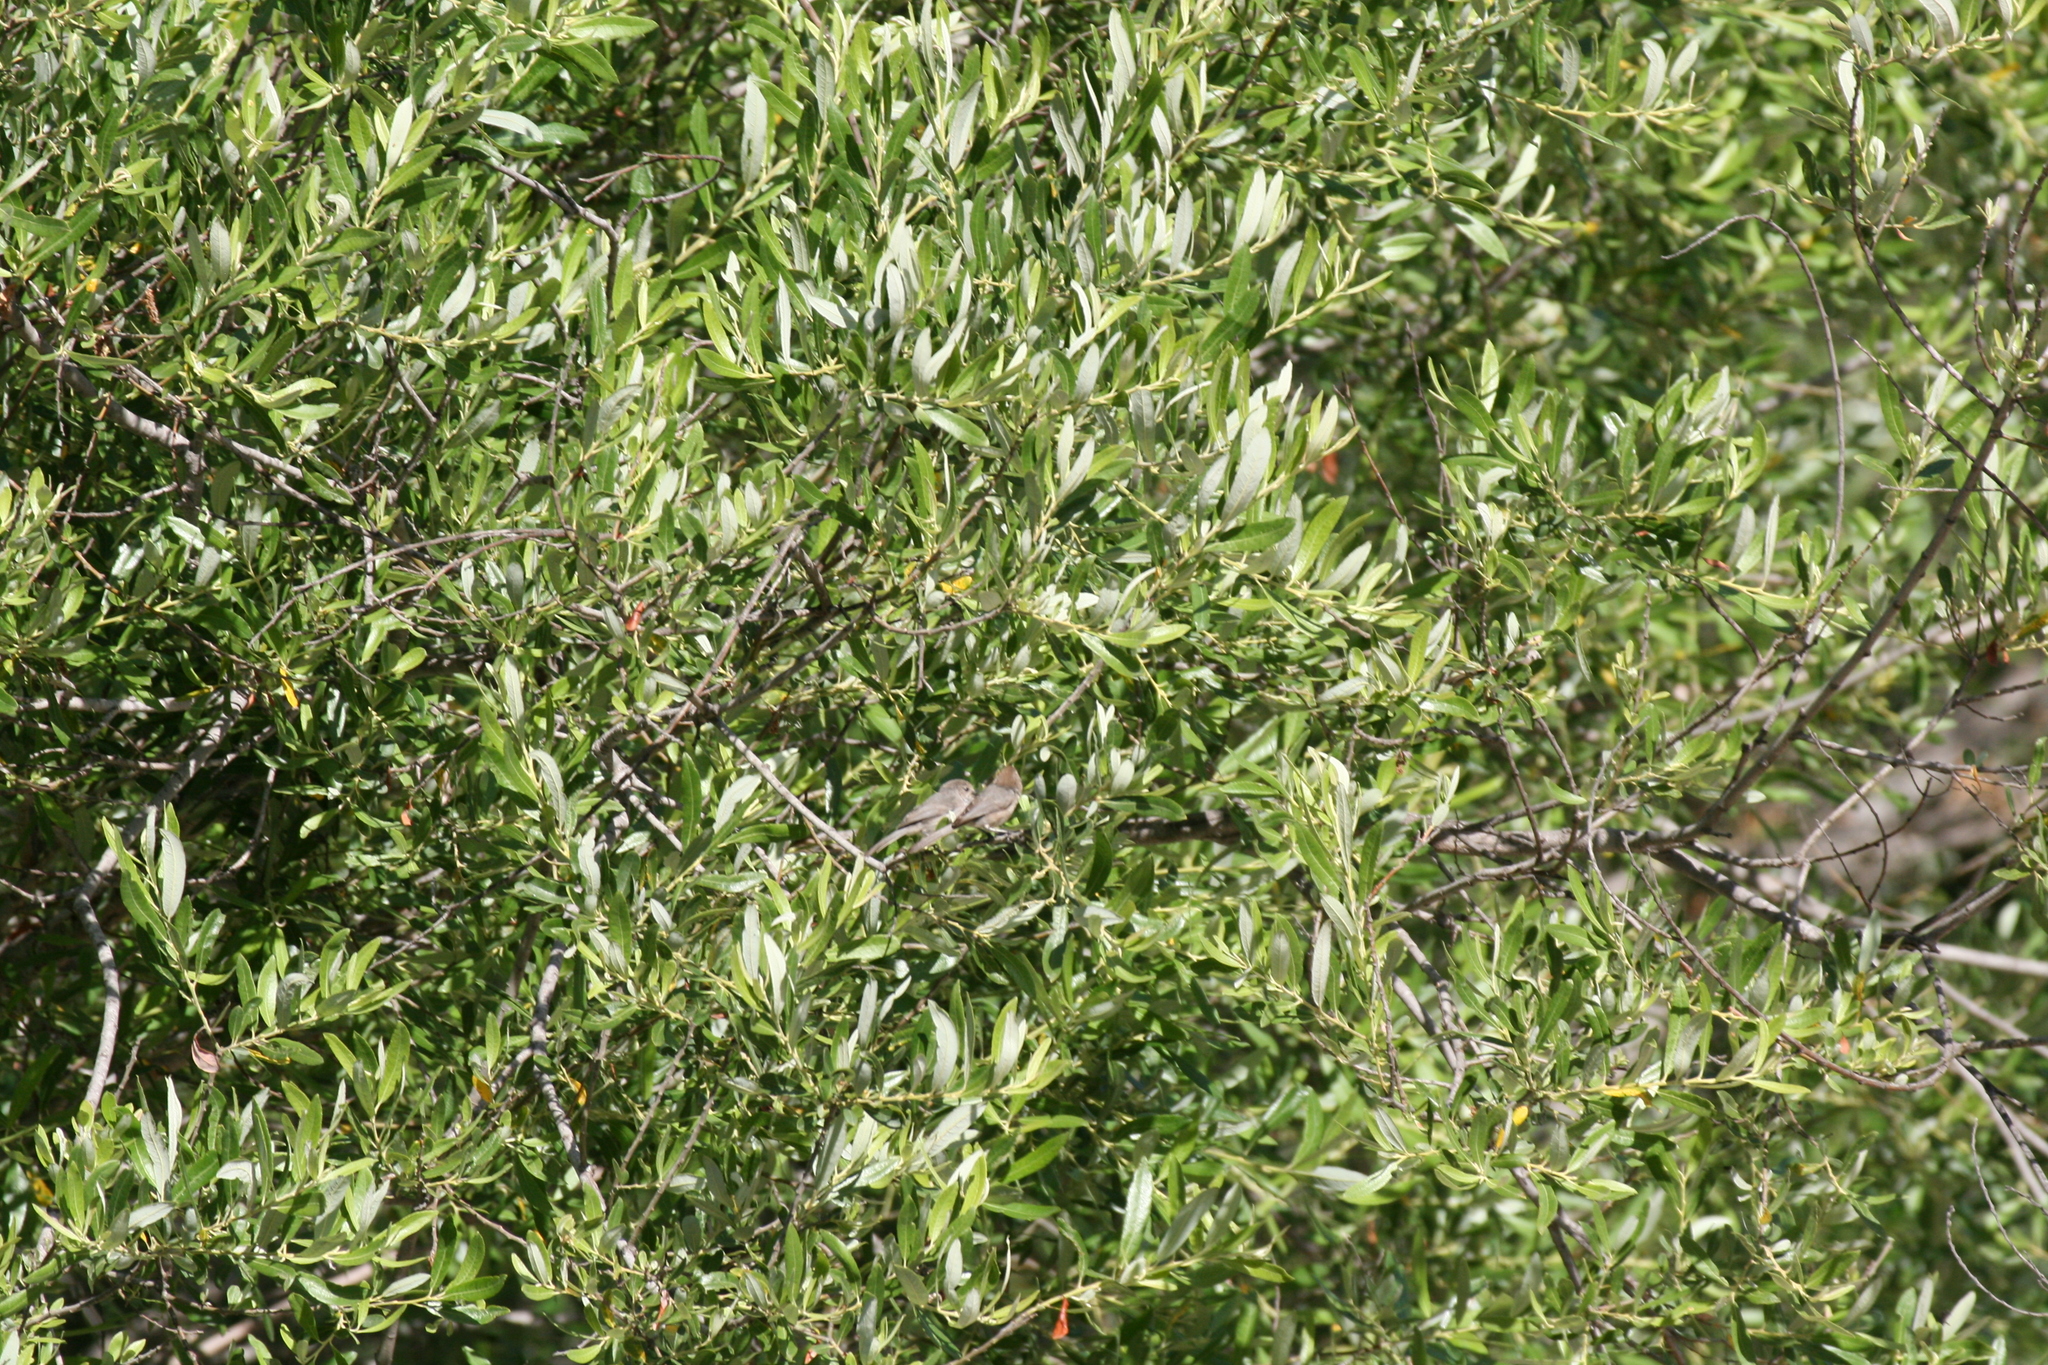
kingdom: Animalia
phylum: Chordata
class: Aves
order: Passeriformes
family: Aegithalidae
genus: Psaltriparus
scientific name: Psaltriparus minimus
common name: American bushtit
